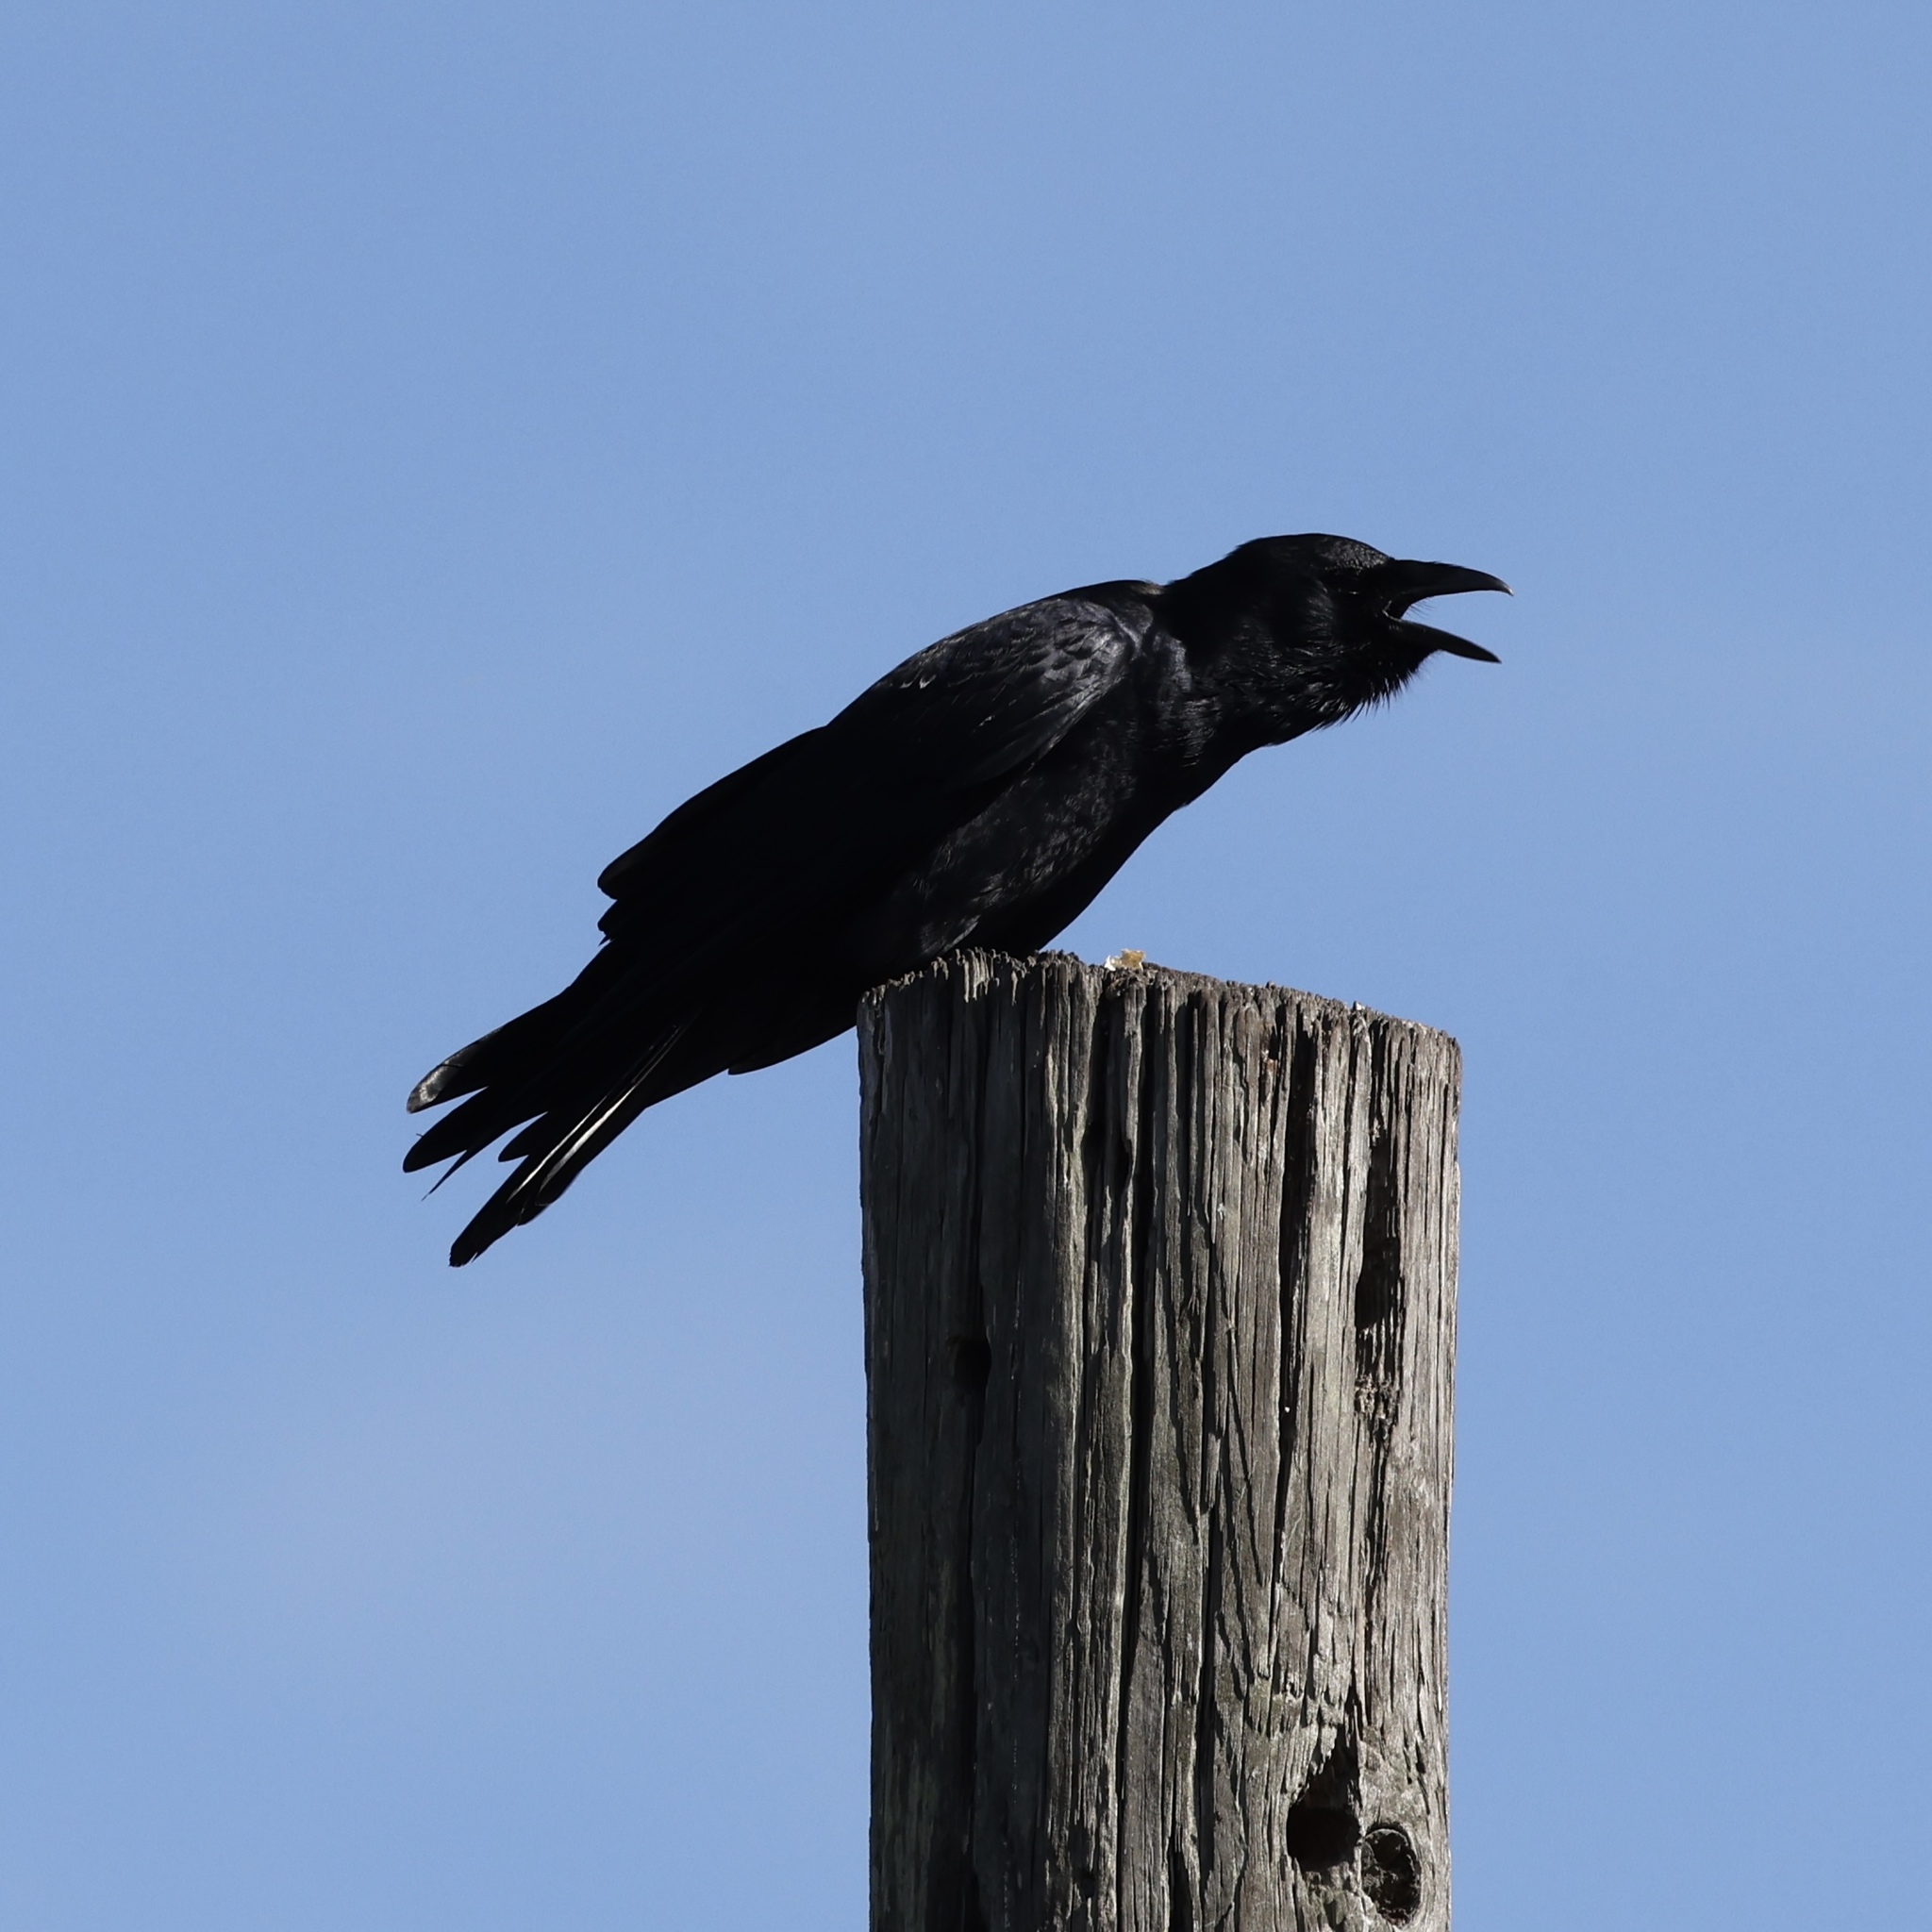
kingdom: Animalia
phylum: Chordata
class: Aves
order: Passeriformes
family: Corvidae
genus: Corvus
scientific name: Corvus ossifragus
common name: Fish crow
